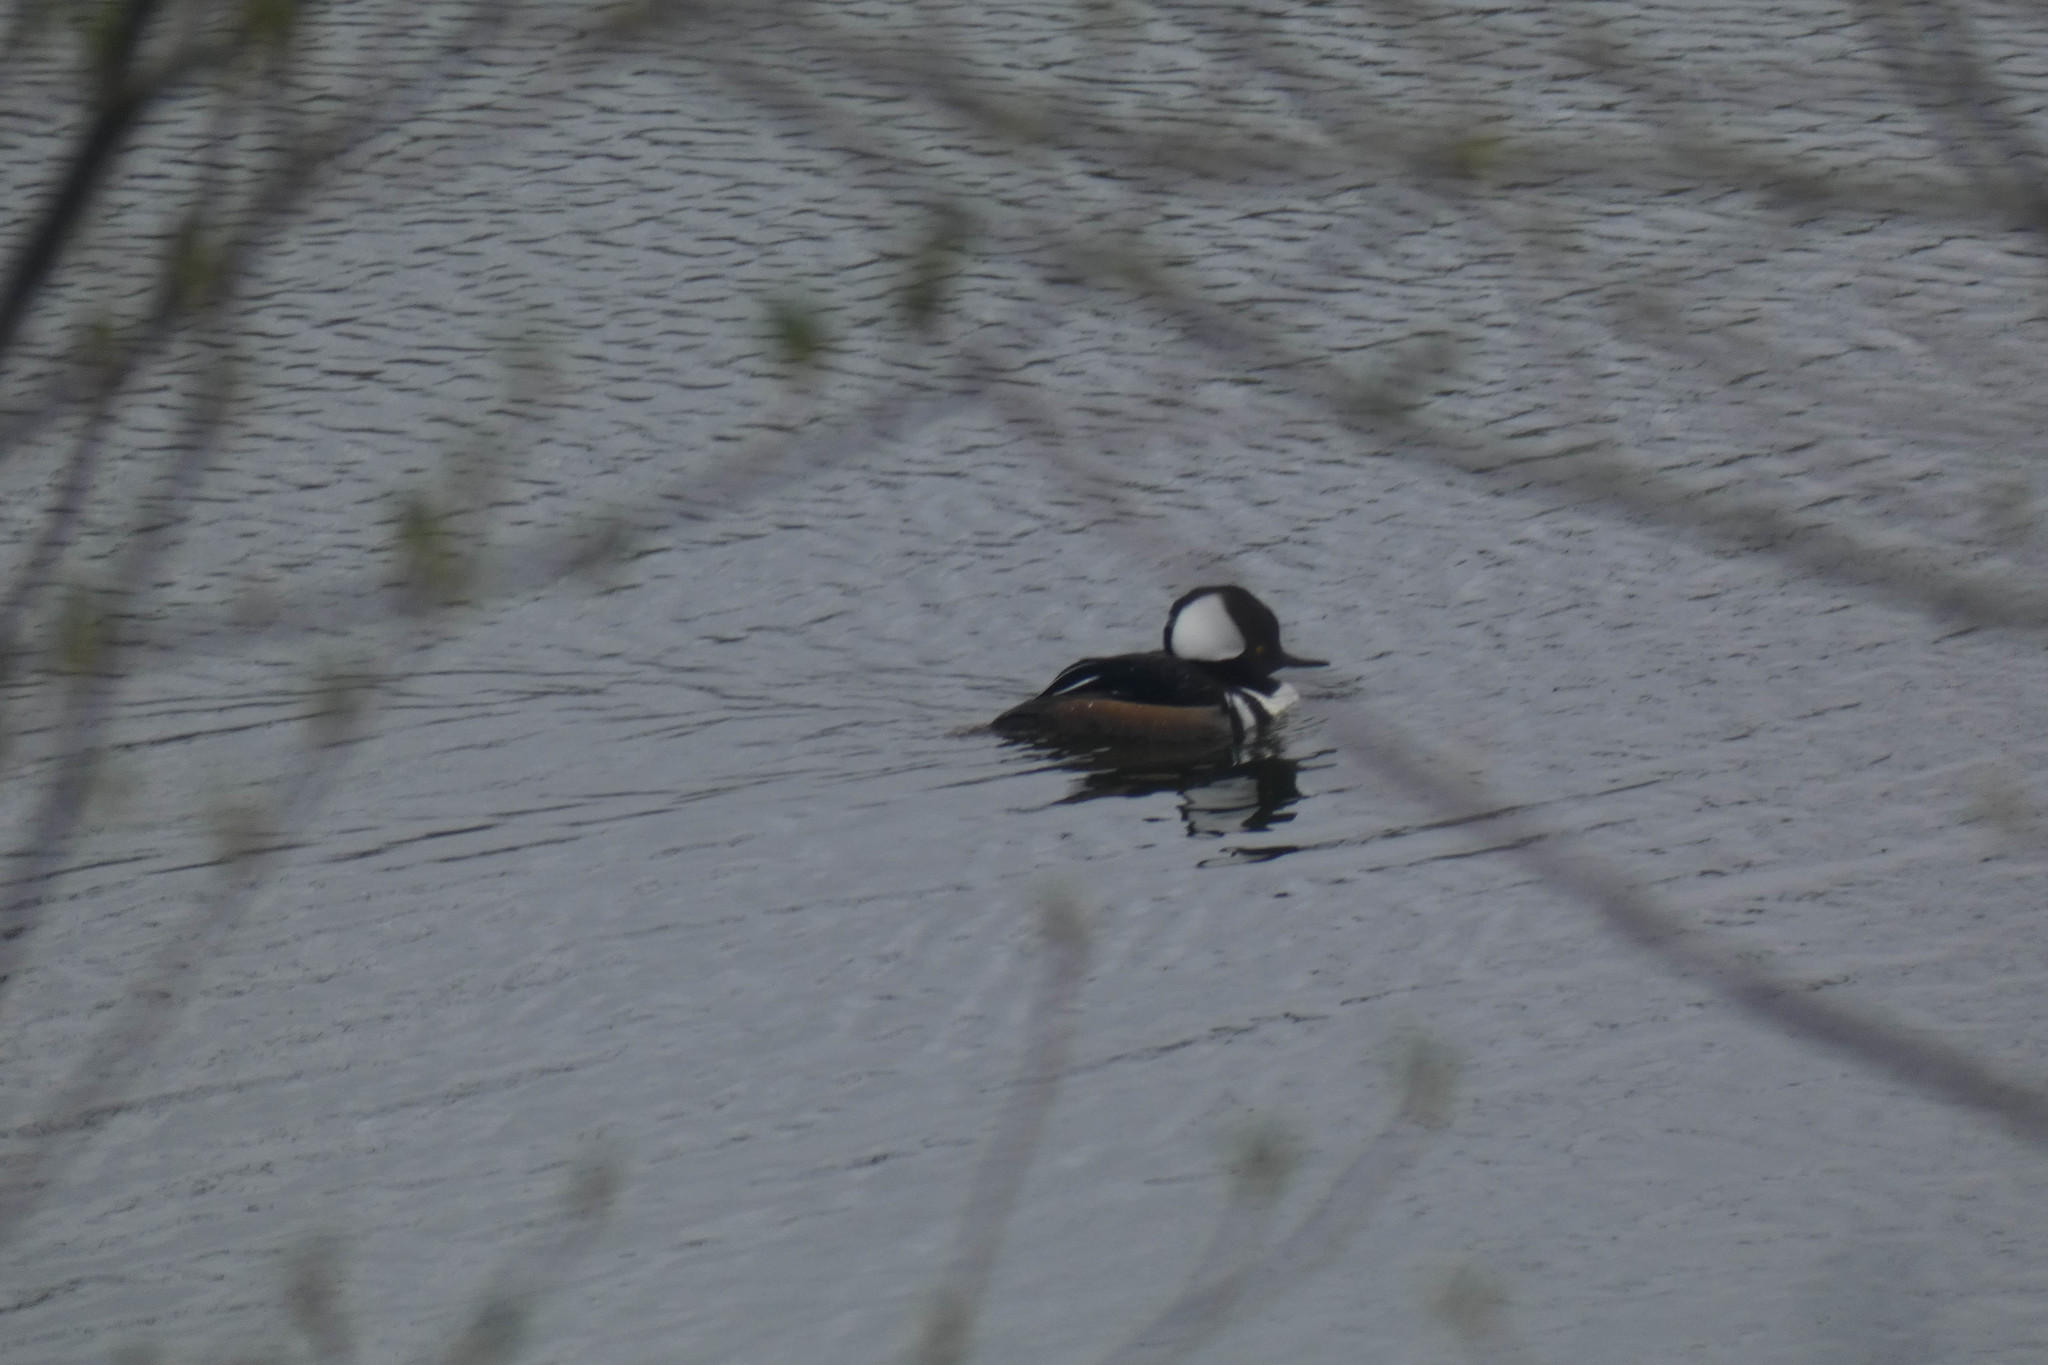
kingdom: Animalia
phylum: Chordata
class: Aves
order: Anseriformes
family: Anatidae
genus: Lophodytes
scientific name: Lophodytes cucullatus
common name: Hooded merganser
